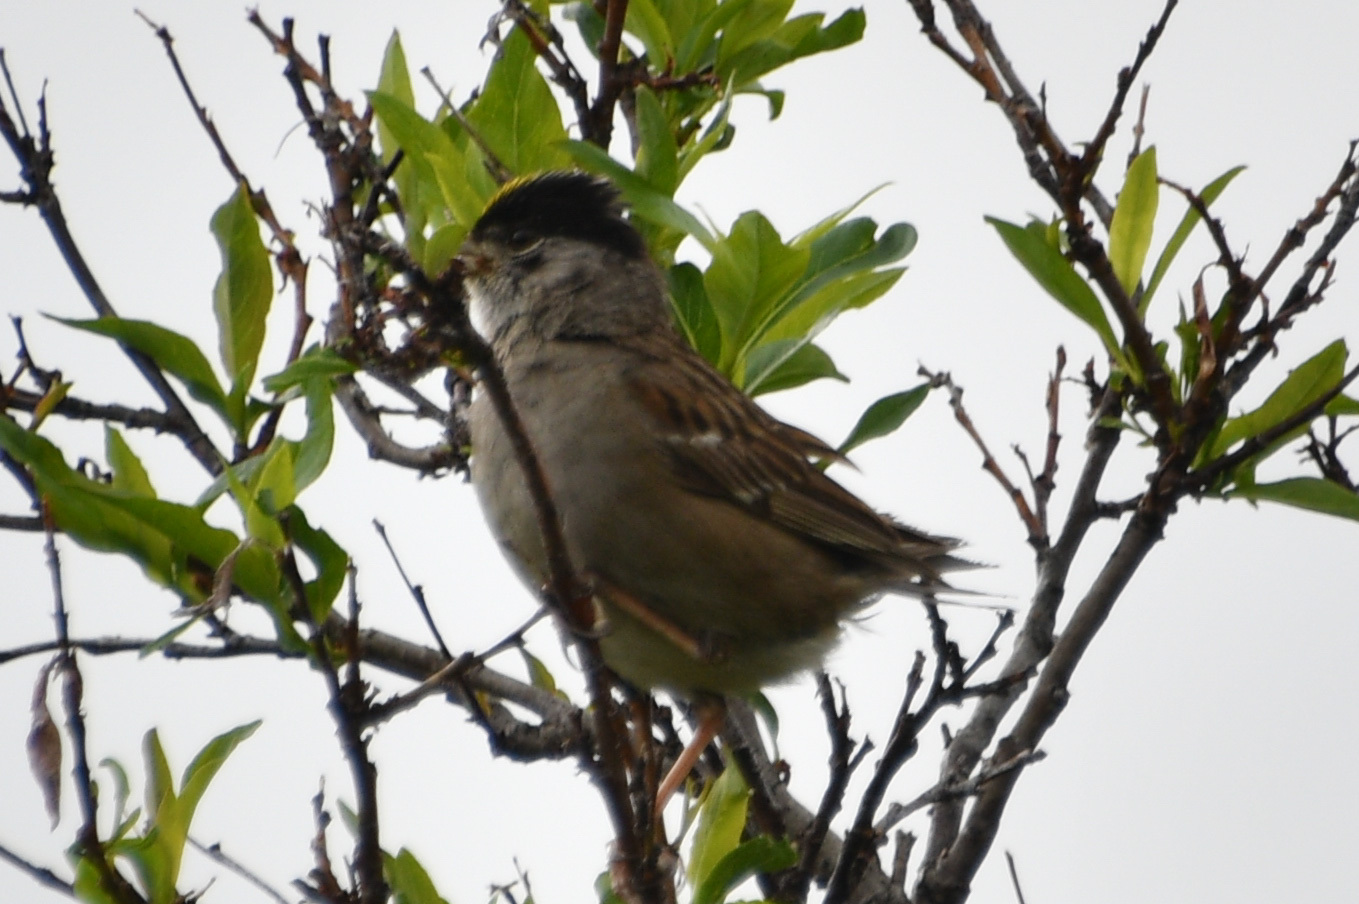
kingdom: Animalia
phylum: Chordata
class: Aves
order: Passeriformes
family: Passerellidae
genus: Zonotrichia
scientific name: Zonotrichia atricapilla
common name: Golden-crowned sparrow
